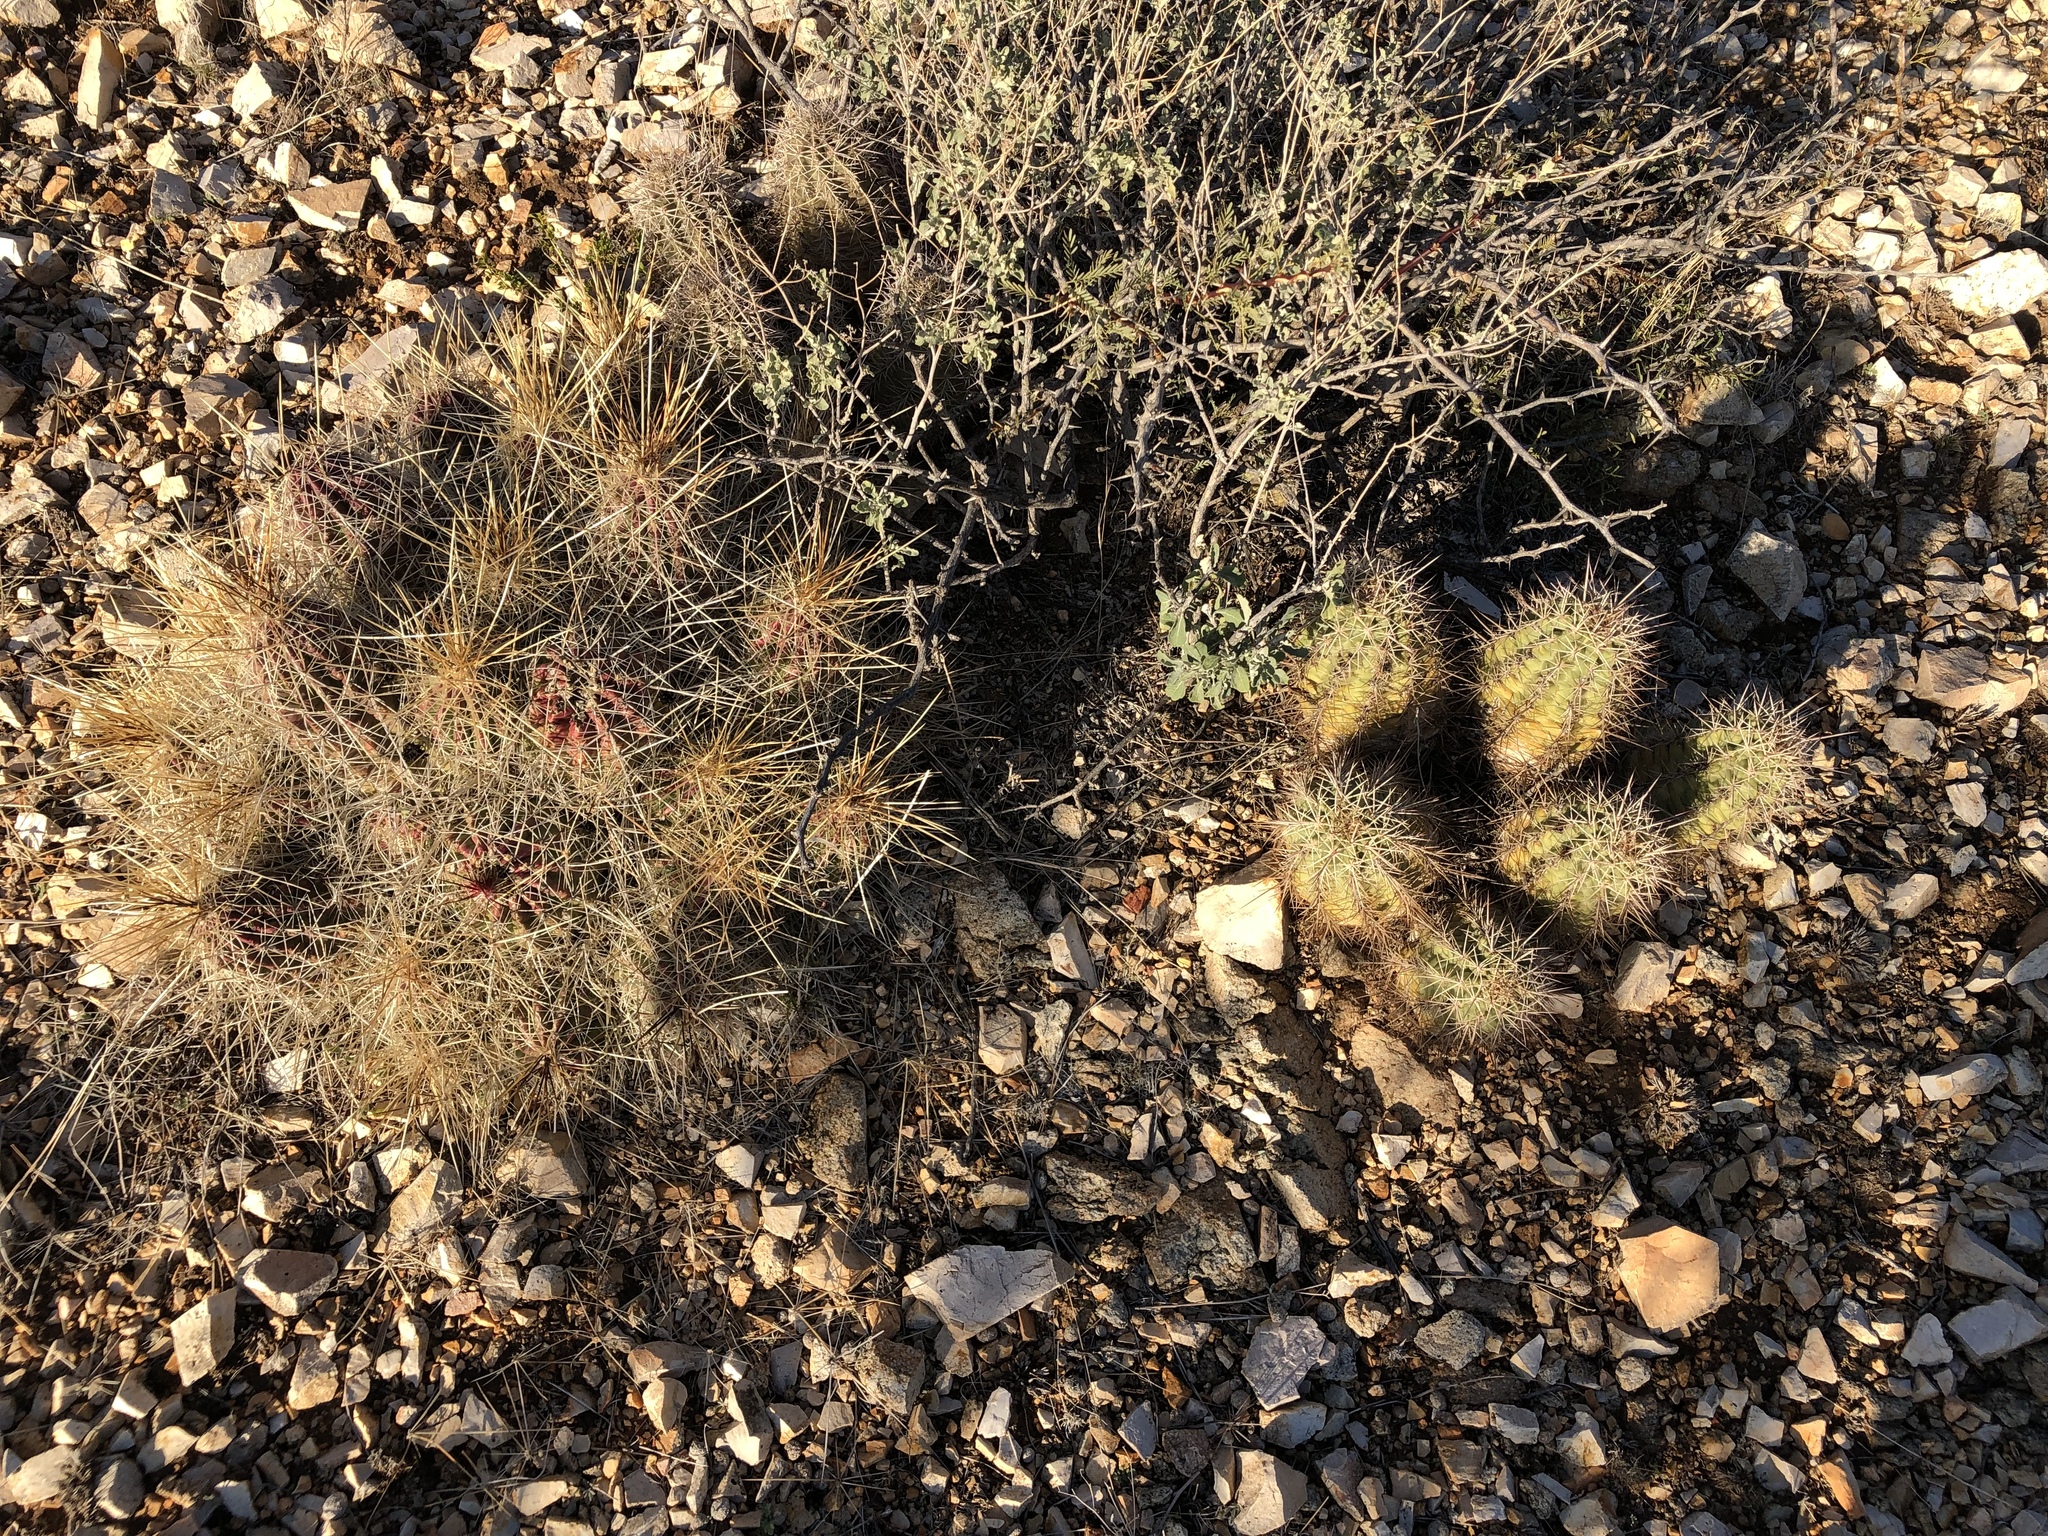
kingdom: Plantae
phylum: Tracheophyta
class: Magnoliopsida
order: Caryophyllales
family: Cactaceae
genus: Echinocereus
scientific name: Echinocereus stramineus
